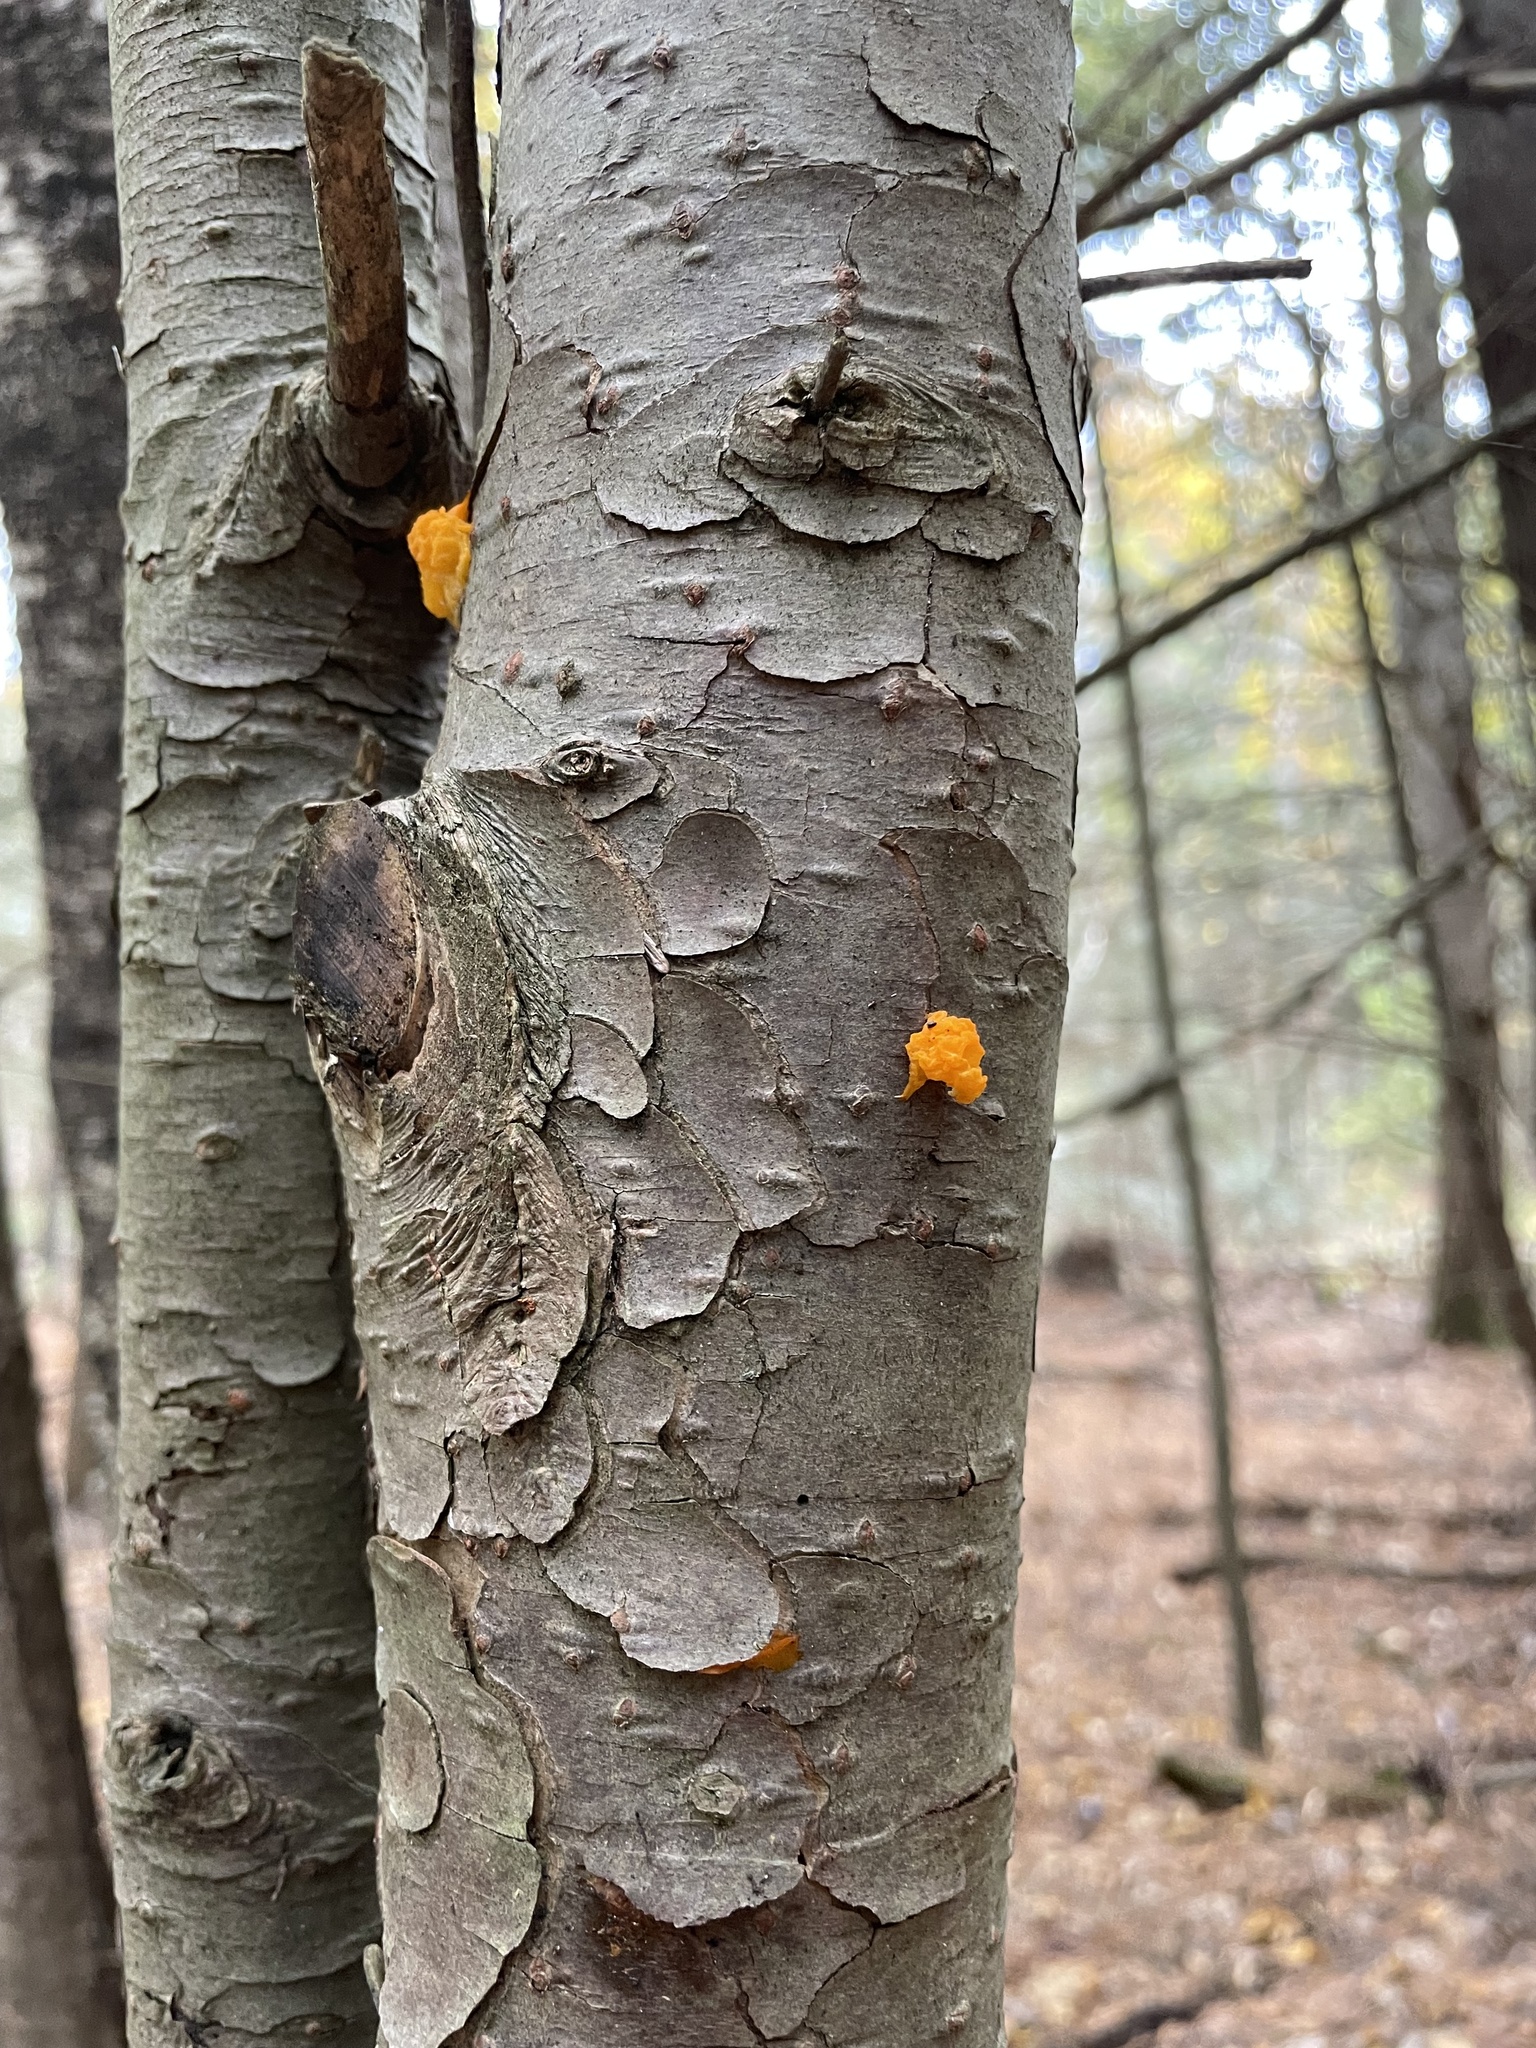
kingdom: Fungi
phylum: Basidiomycota
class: Dacrymycetes
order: Dacrymycetales
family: Dacrymycetaceae
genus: Dacrymyces
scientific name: Dacrymyces chrysospermus
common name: Orange jelly spot
